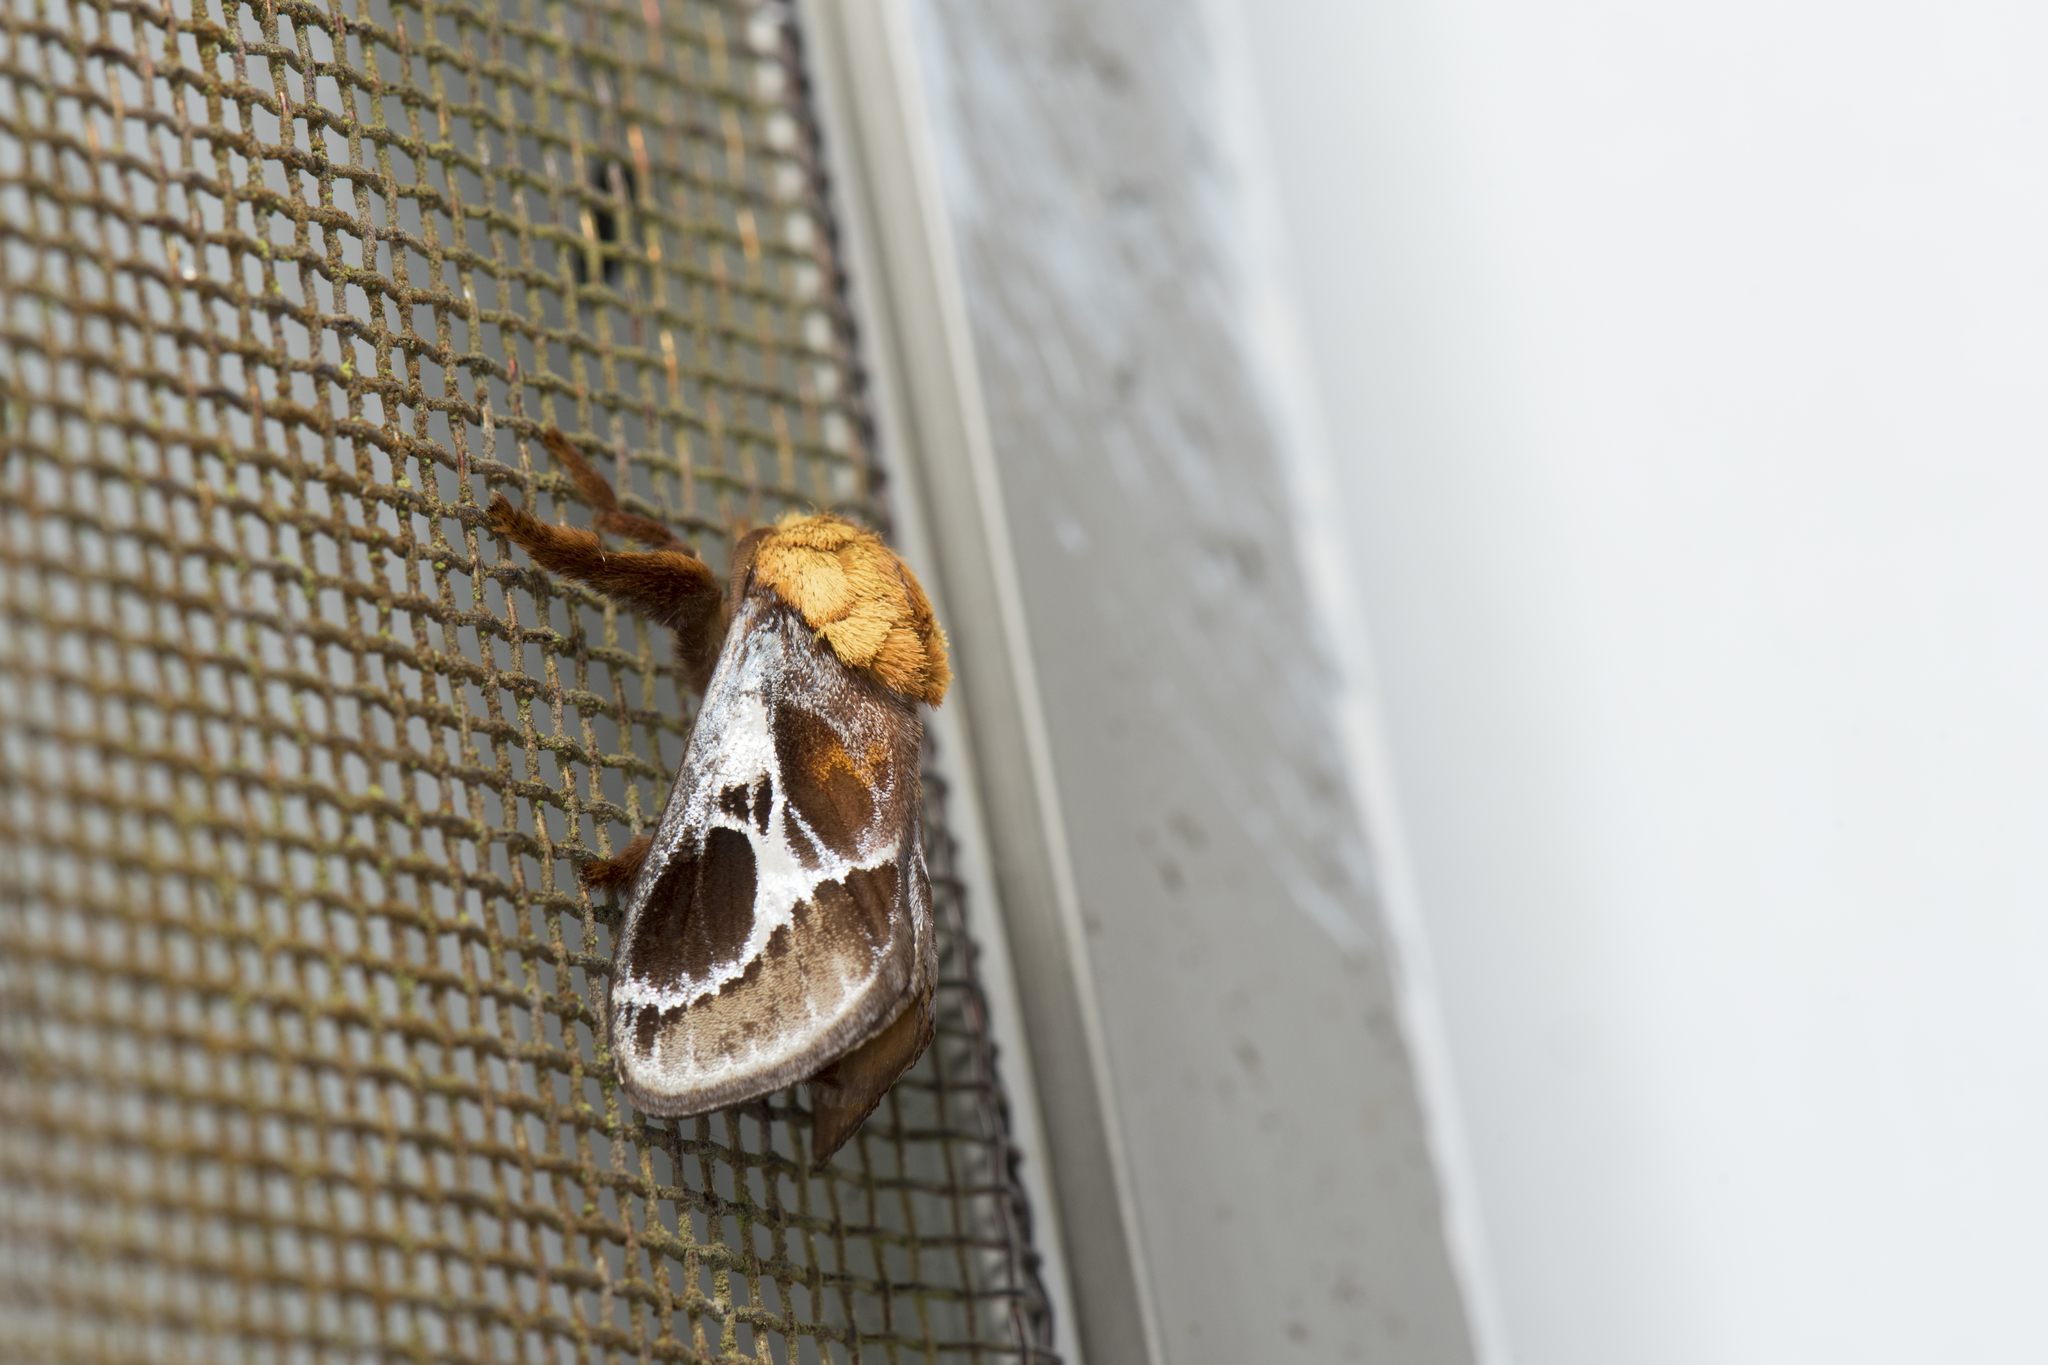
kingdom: Animalia
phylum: Arthropoda
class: Insecta
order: Lepidoptera
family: Limacodidae
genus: Miresa
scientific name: Miresa fulgida
